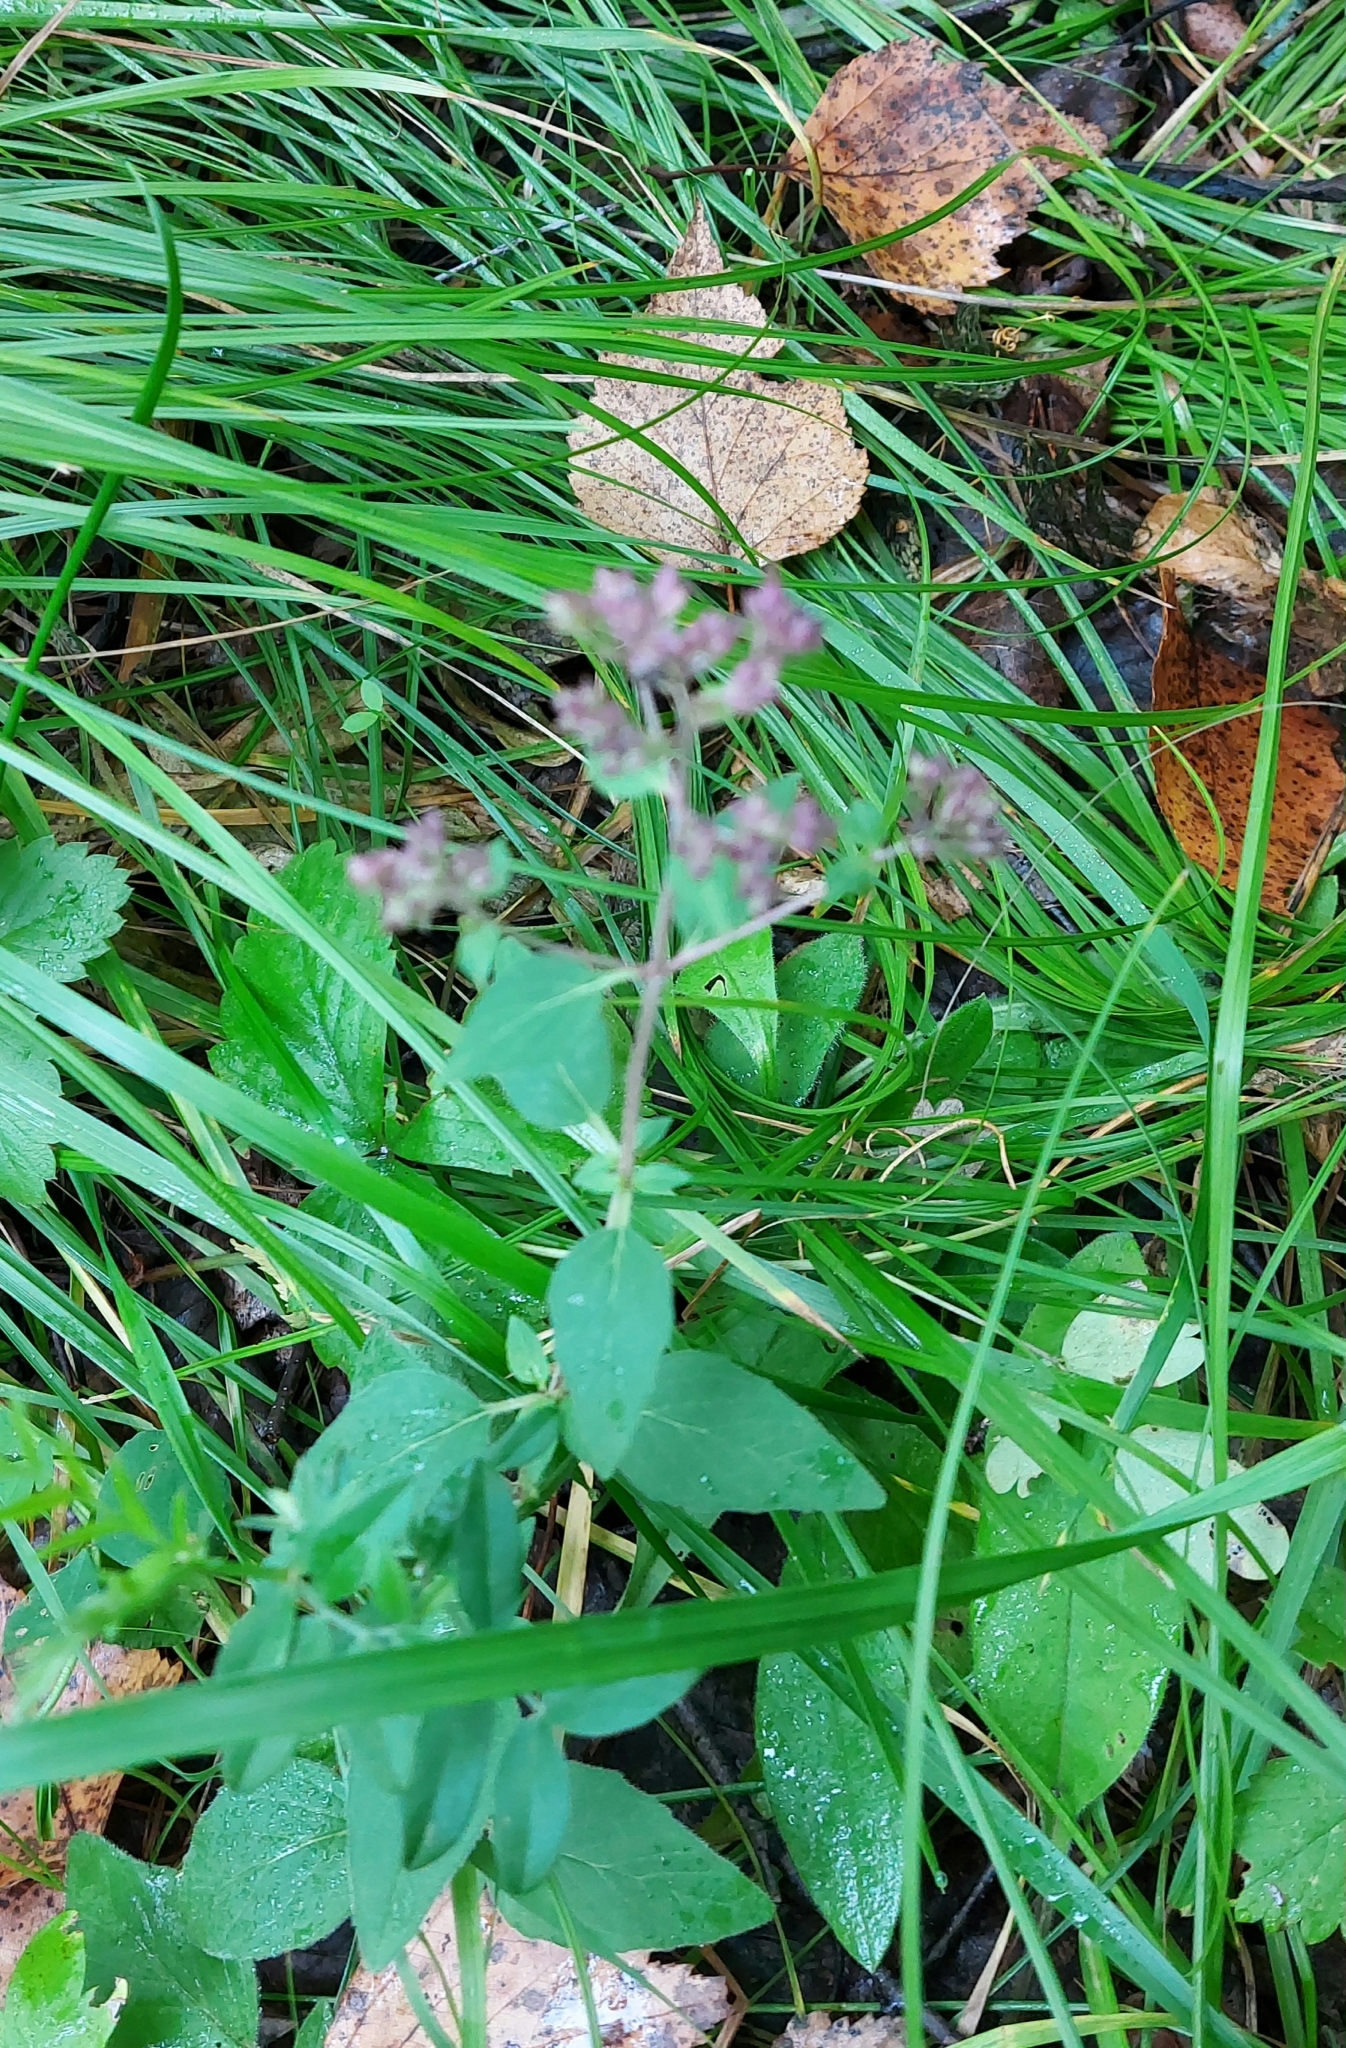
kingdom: Plantae
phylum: Tracheophyta
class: Magnoliopsida
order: Lamiales
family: Lamiaceae
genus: Origanum
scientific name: Origanum vulgare
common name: Wild marjoram
